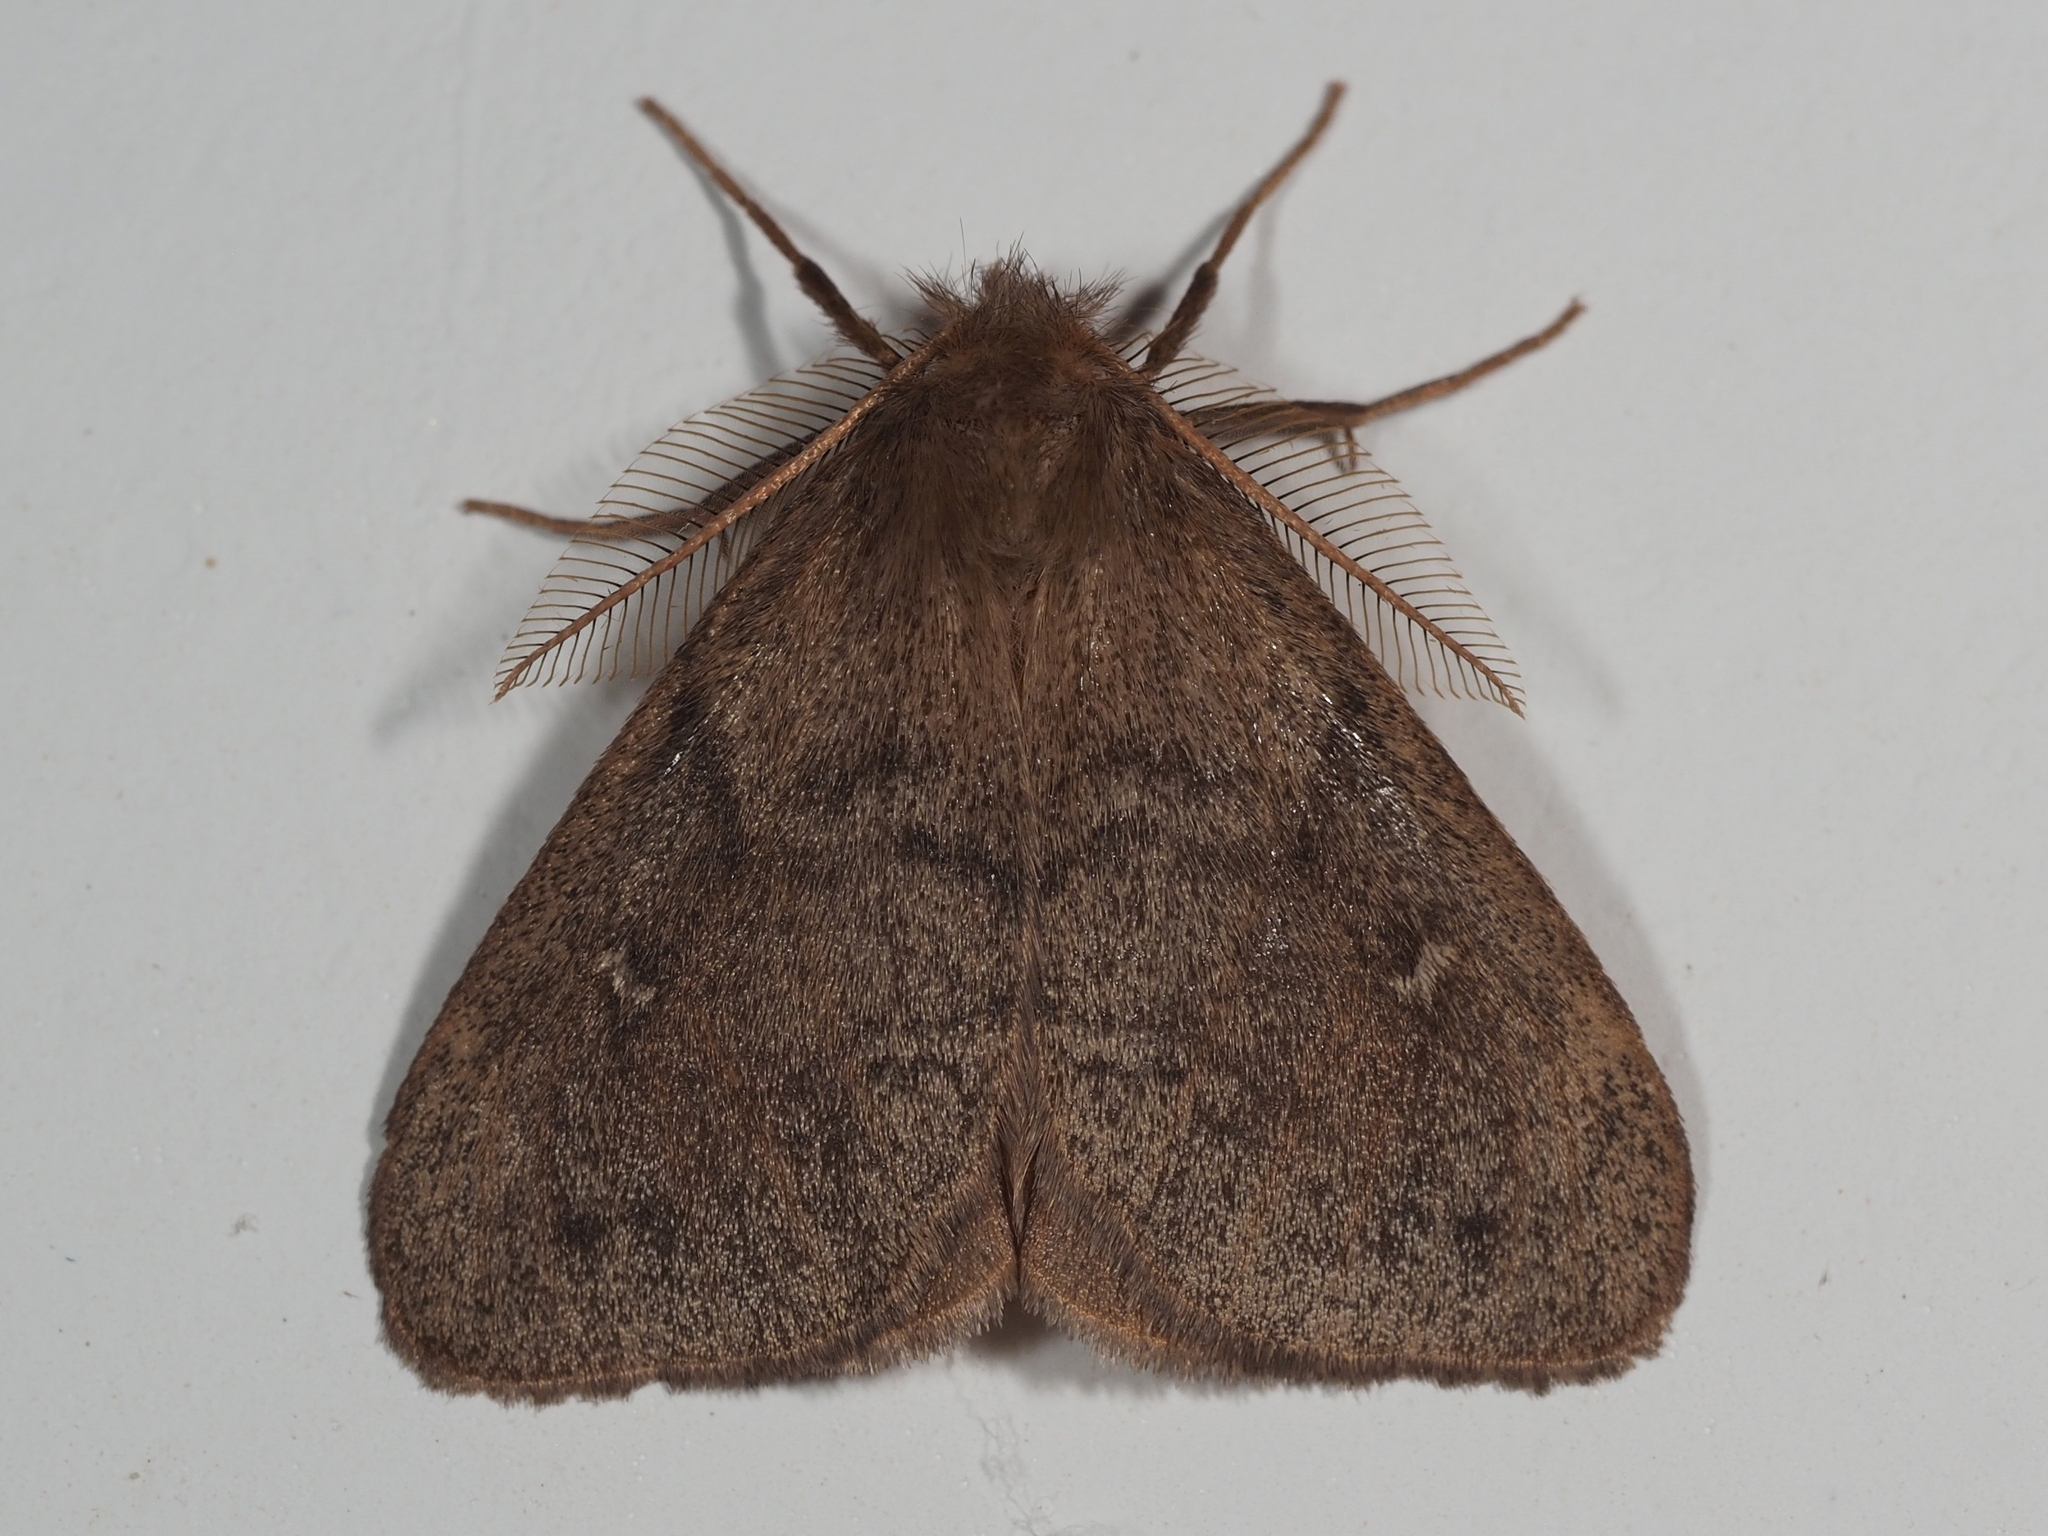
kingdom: Animalia
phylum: Arthropoda
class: Insecta
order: Lepidoptera
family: Erebidae
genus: Ocneria
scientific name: Ocneria rubea
